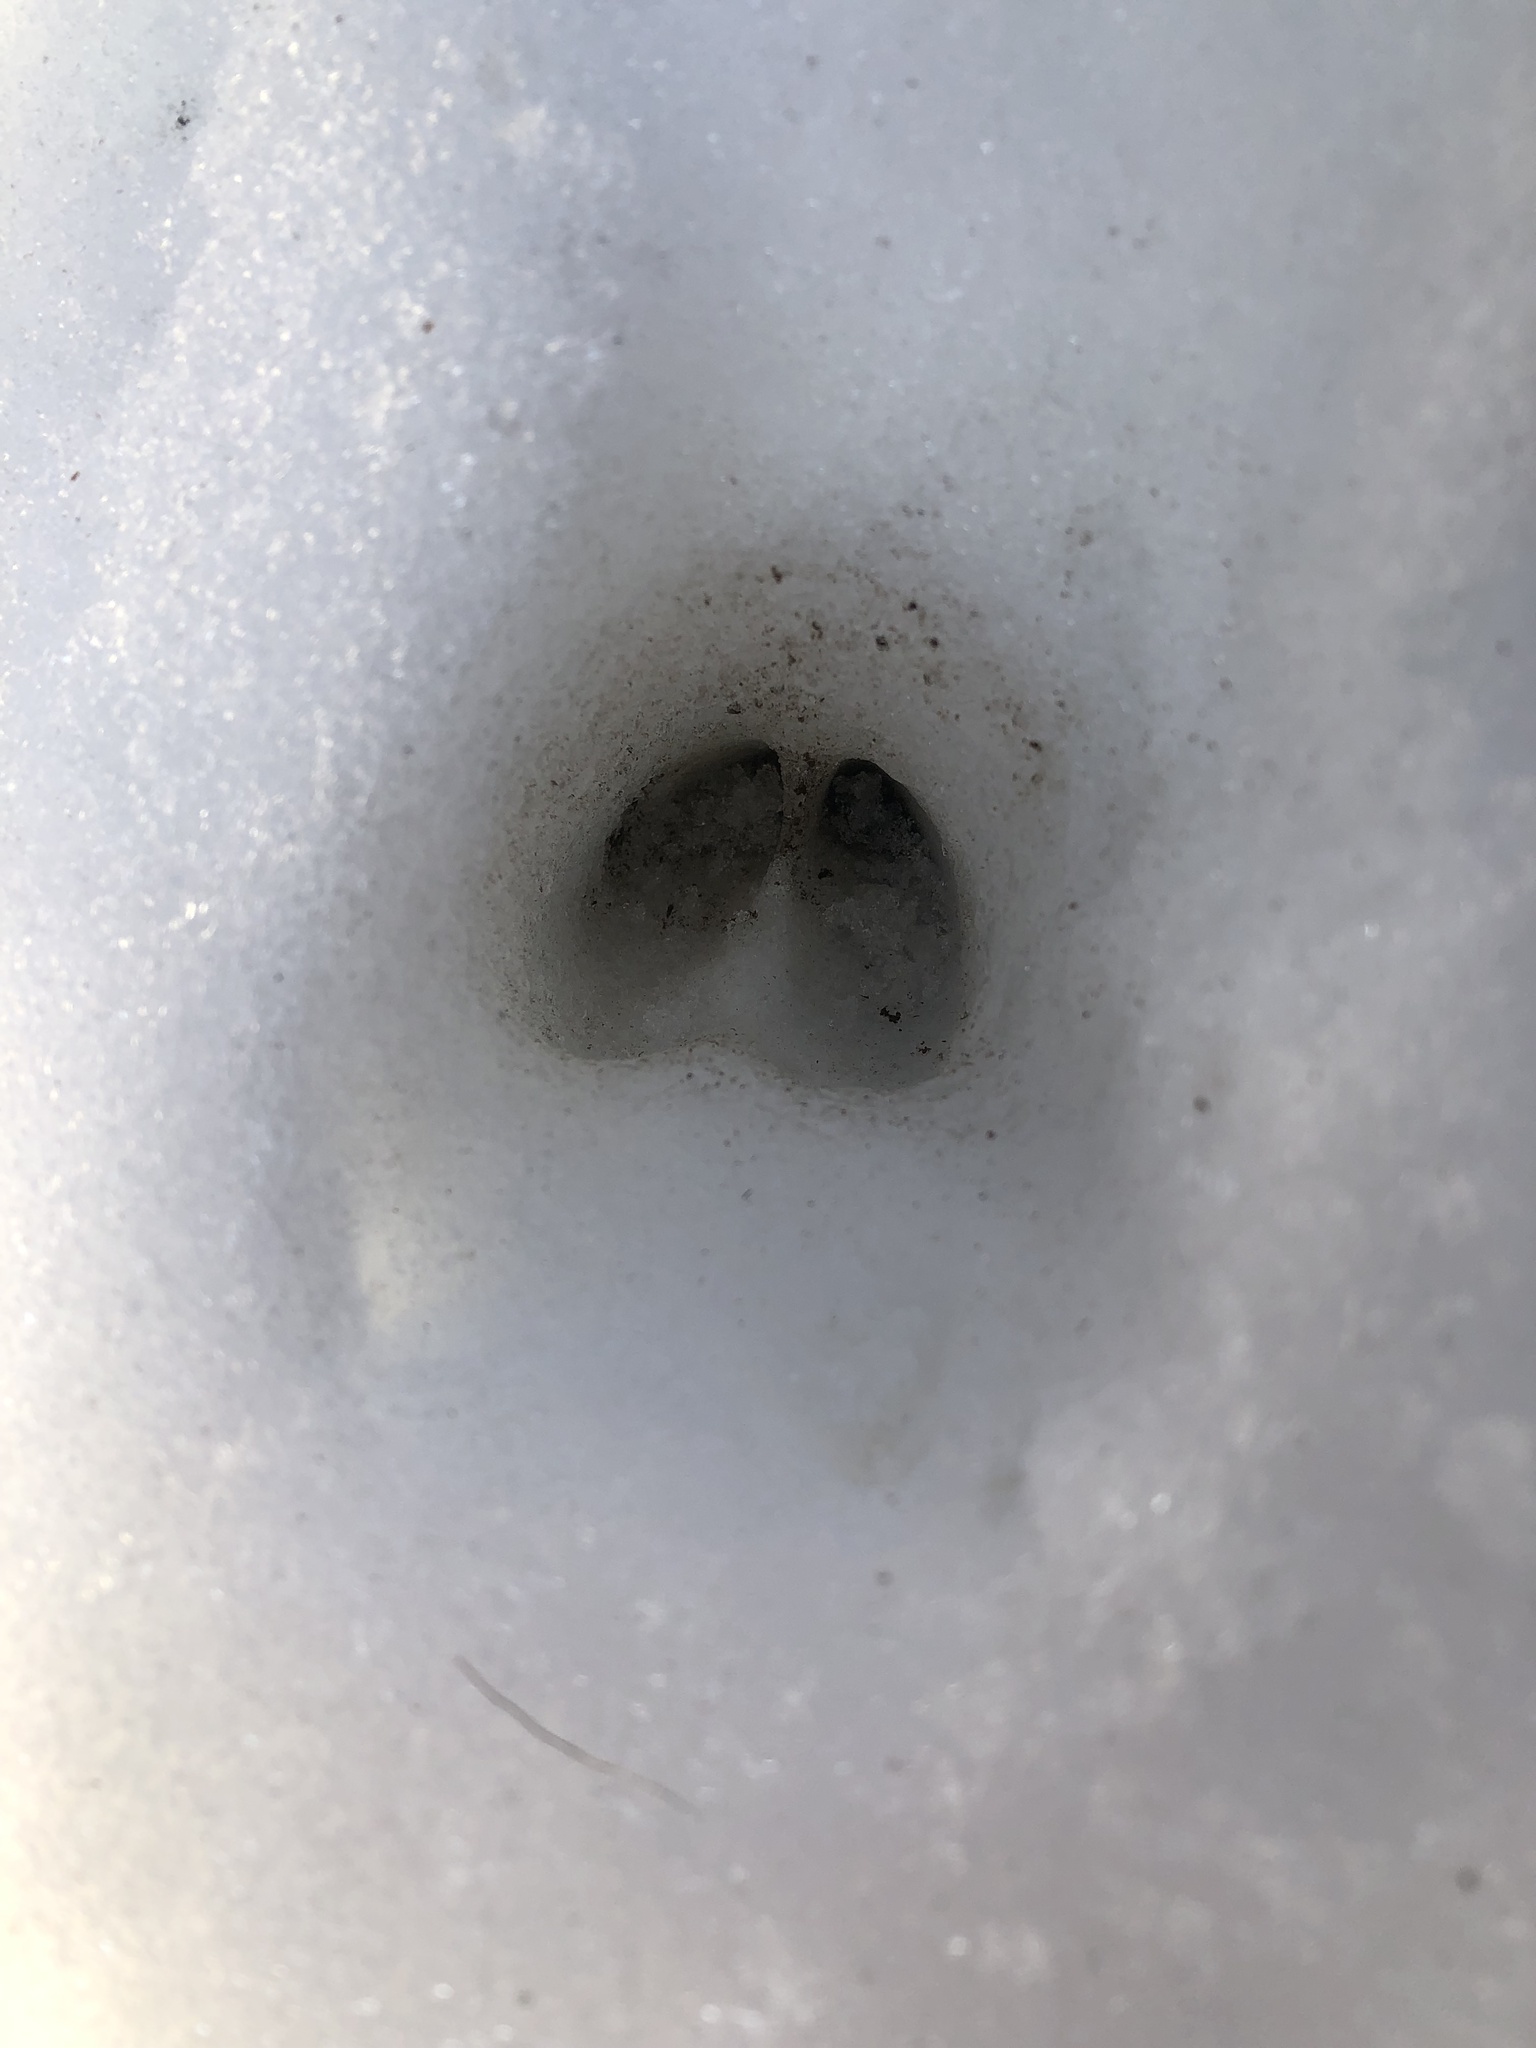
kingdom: Animalia
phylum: Chordata
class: Mammalia
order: Artiodactyla
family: Cervidae
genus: Odocoileus
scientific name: Odocoileus virginianus
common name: White-tailed deer
